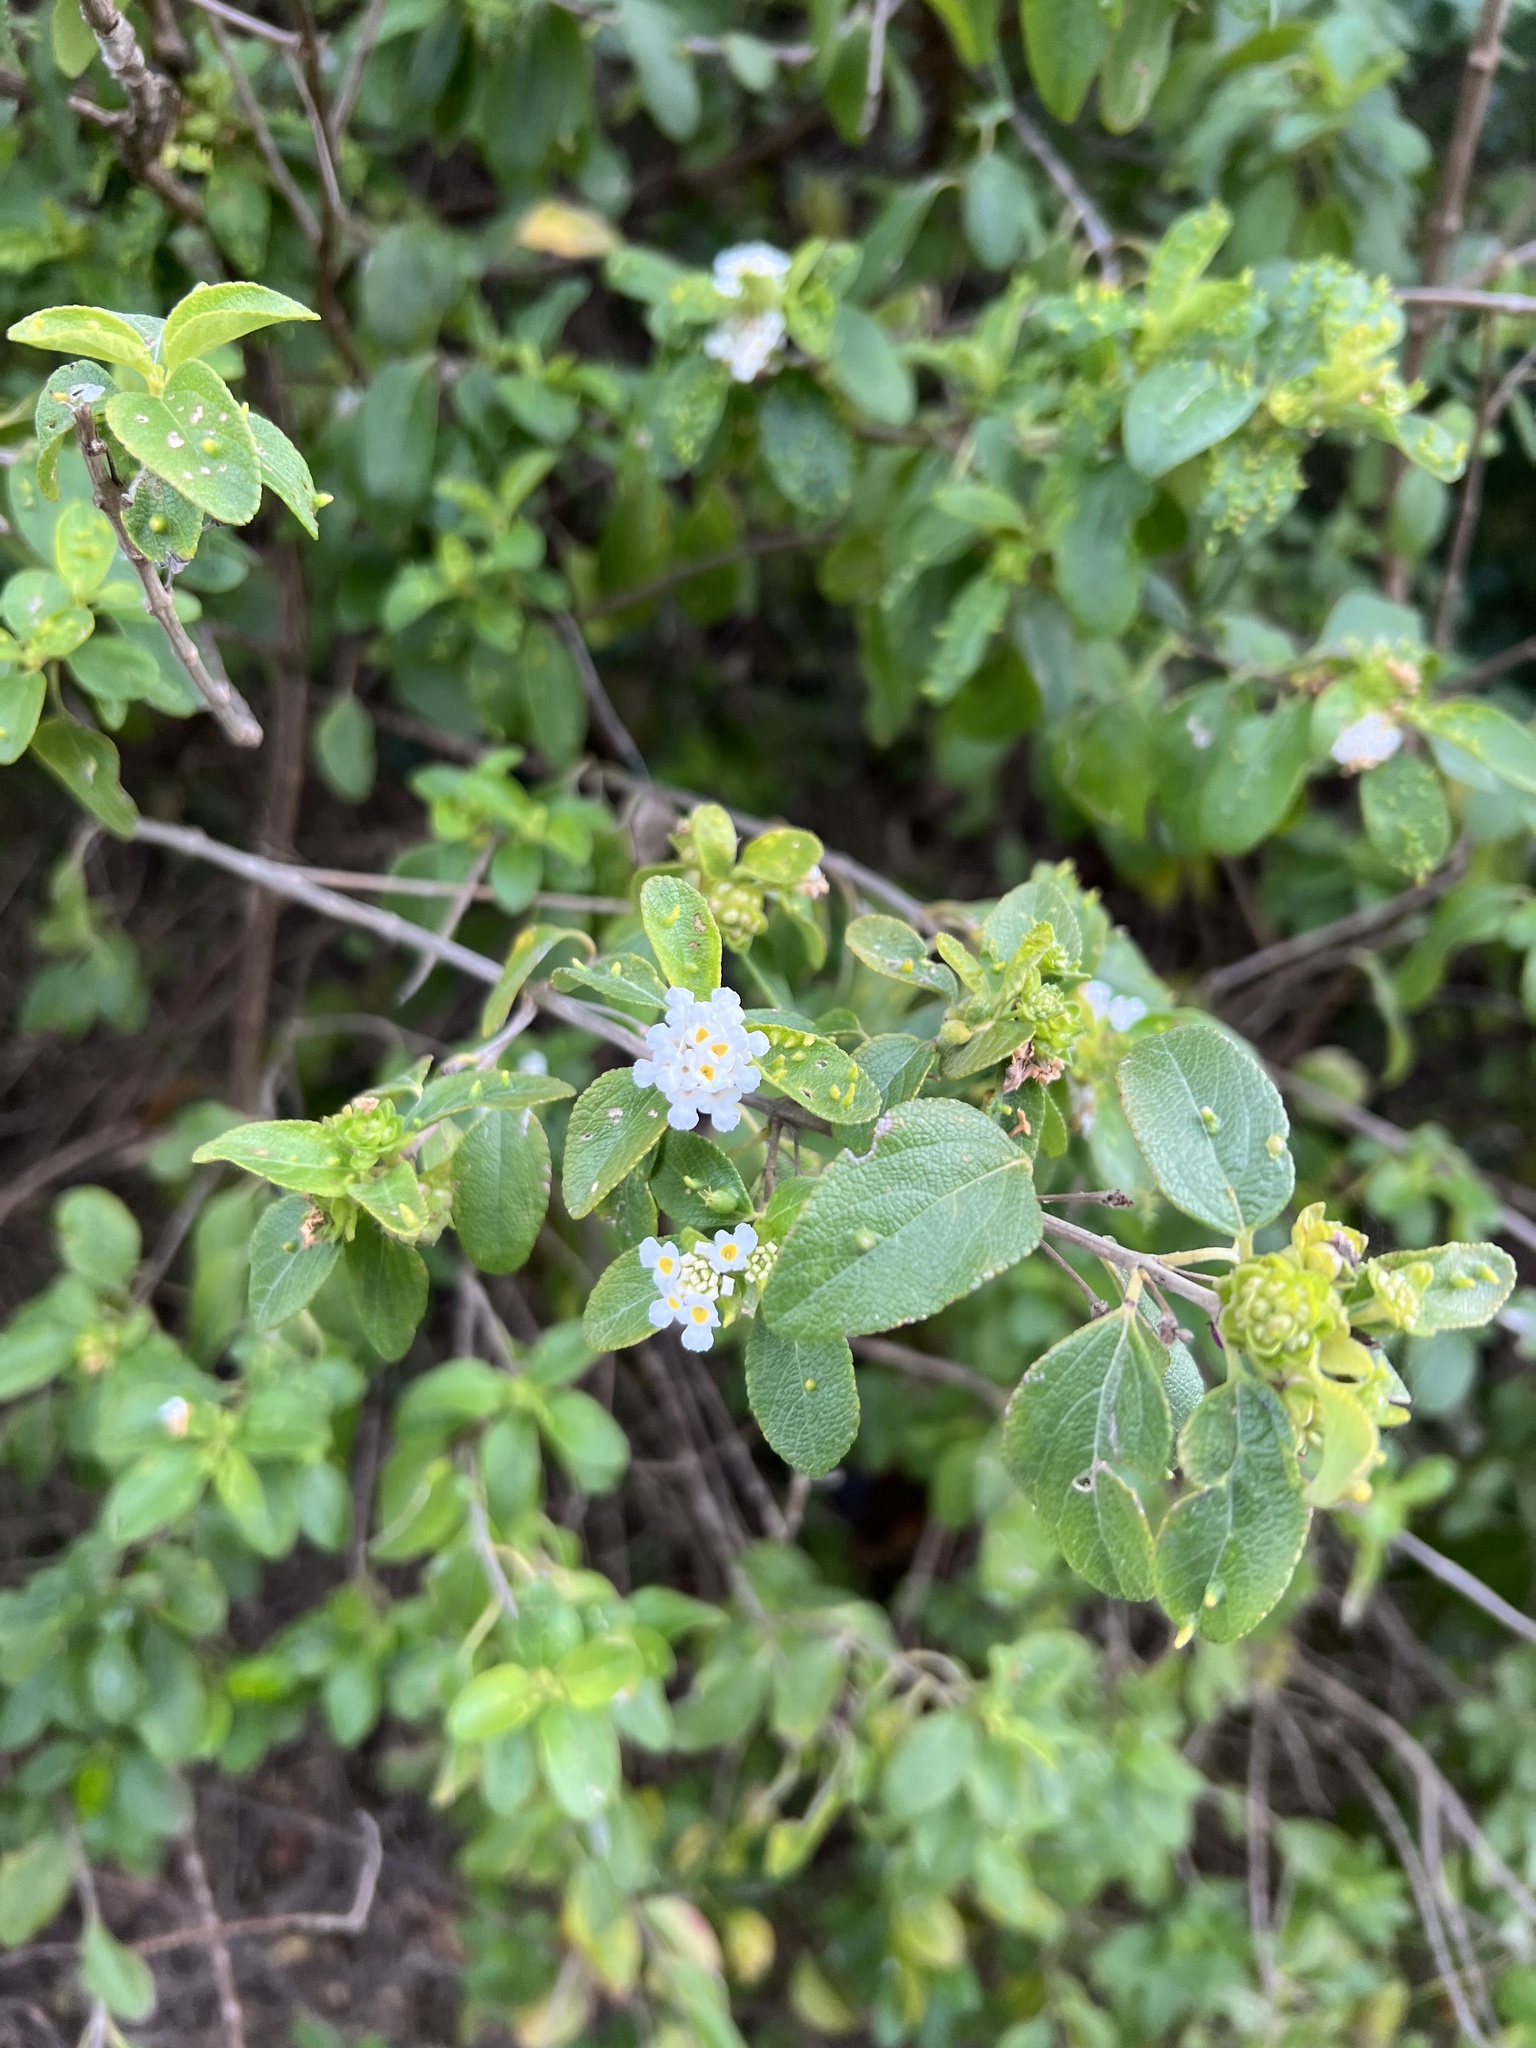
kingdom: Plantae
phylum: Tracheophyta
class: Magnoliopsida
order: Lamiales
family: Verbenaceae
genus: Lantana
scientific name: Lantana involucrata
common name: Black sage
